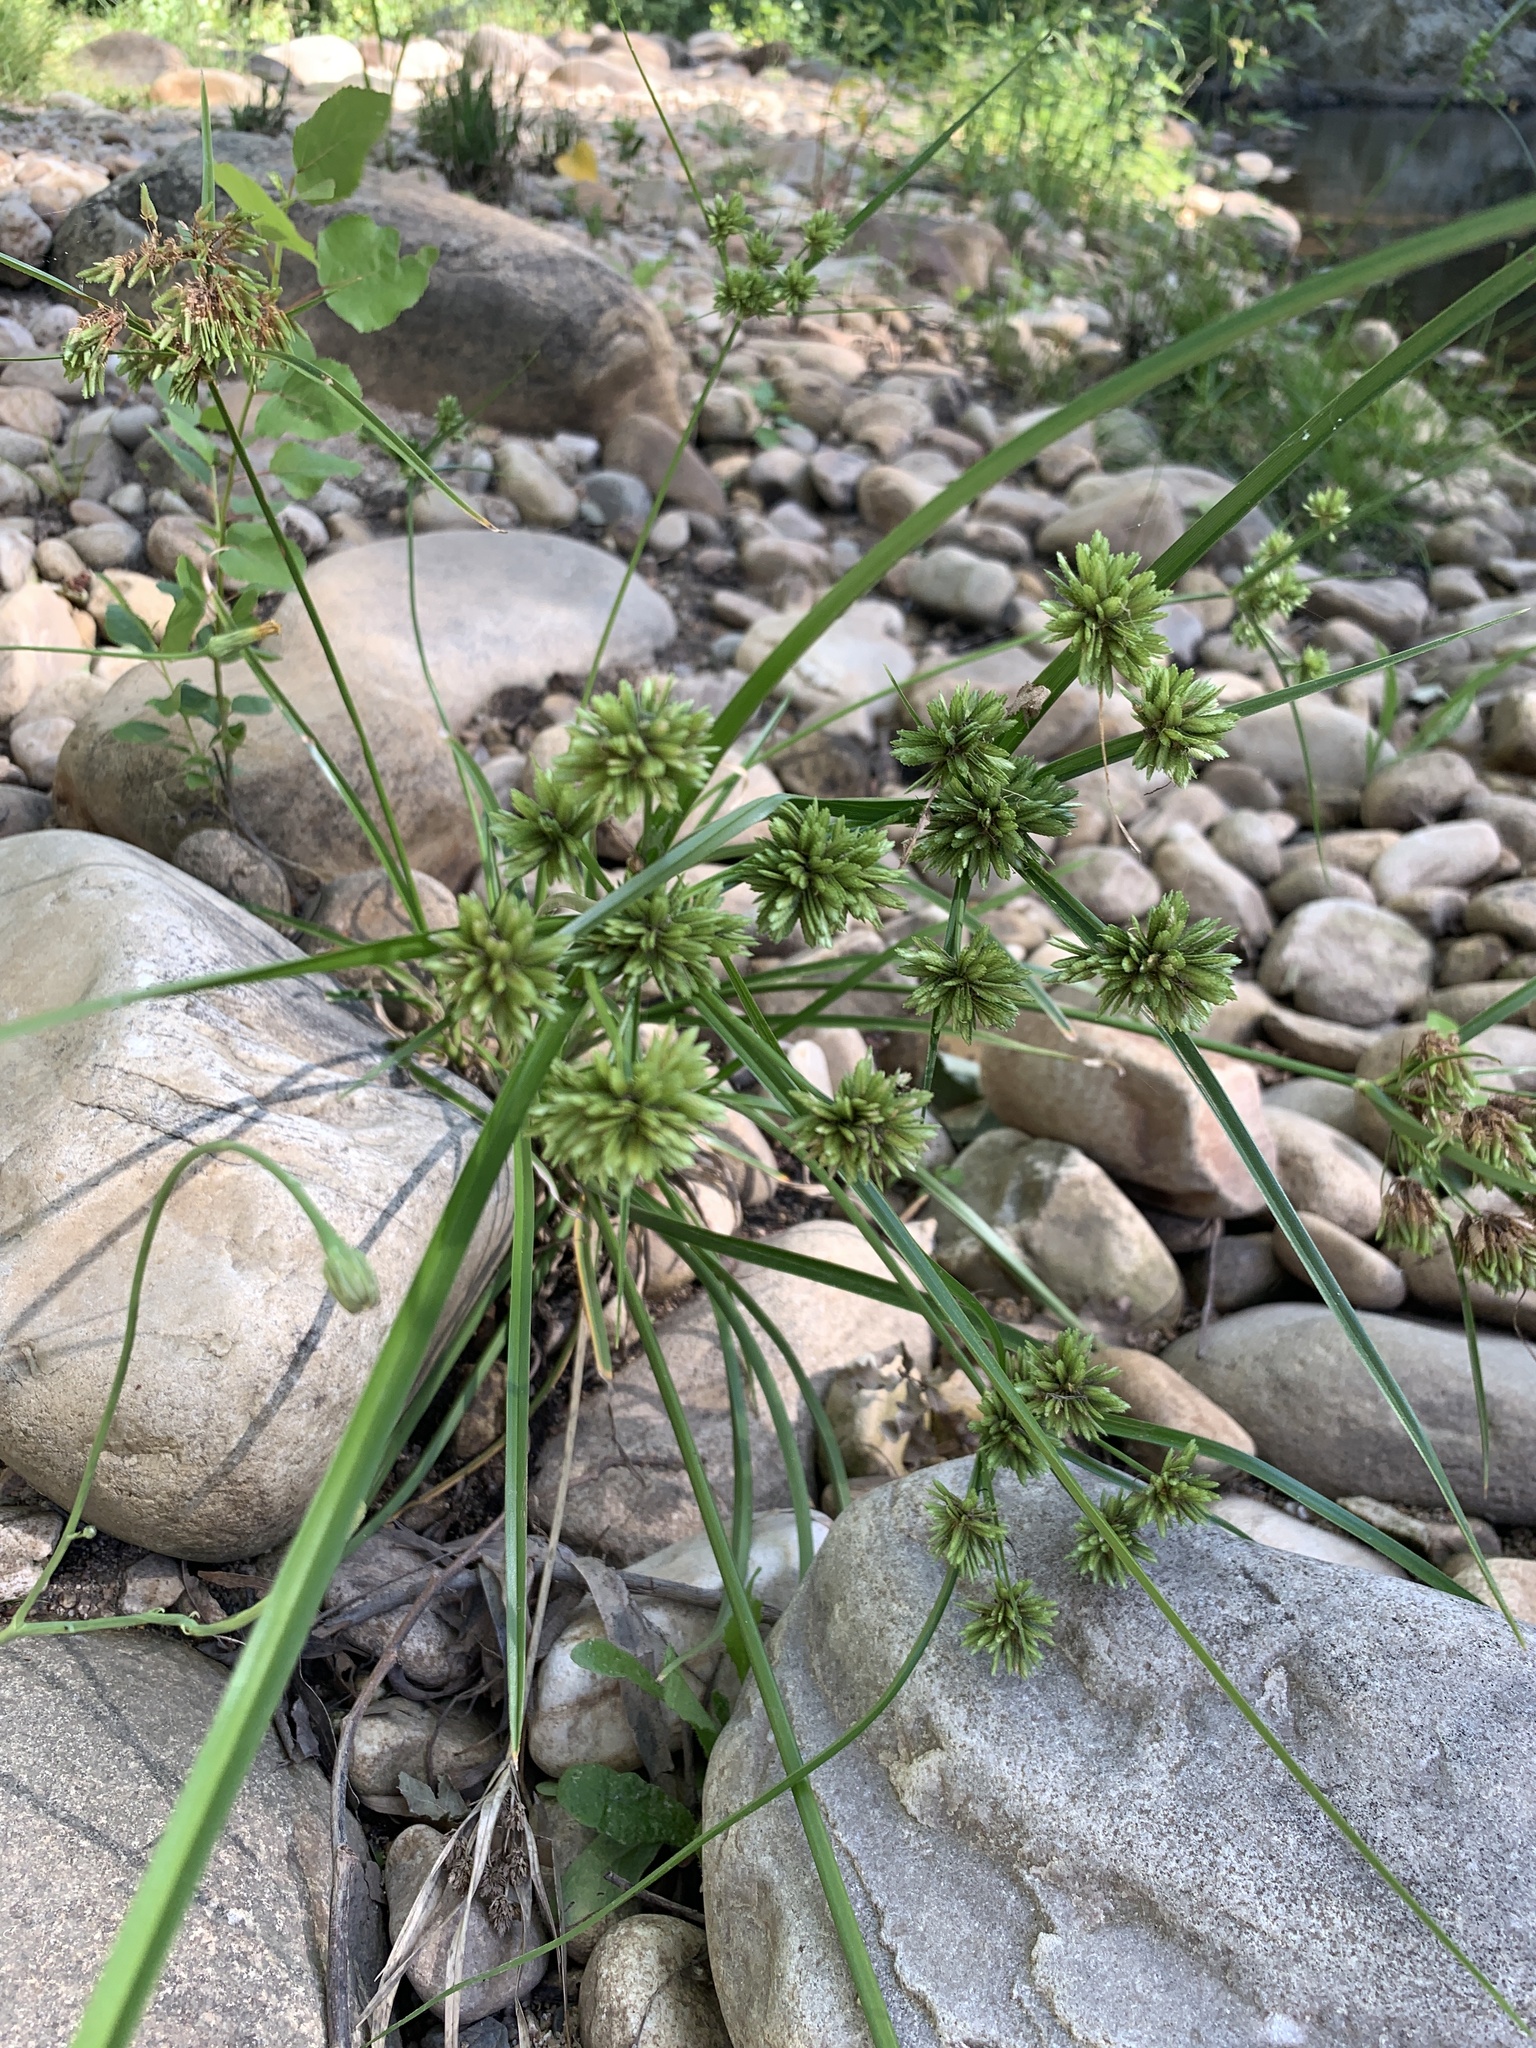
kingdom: Plantae
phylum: Tracheophyta
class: Liliopsida
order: Poales
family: Cyperaceae
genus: Cyperus
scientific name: Cyperus eragrostis
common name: Tall flatsedge
